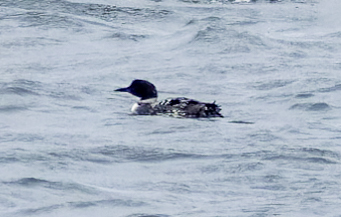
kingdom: Animalia
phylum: Chordata
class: Aves
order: Gaviiformes
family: Gaviidae
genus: Gavia
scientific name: Gavia immer
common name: Common loon
